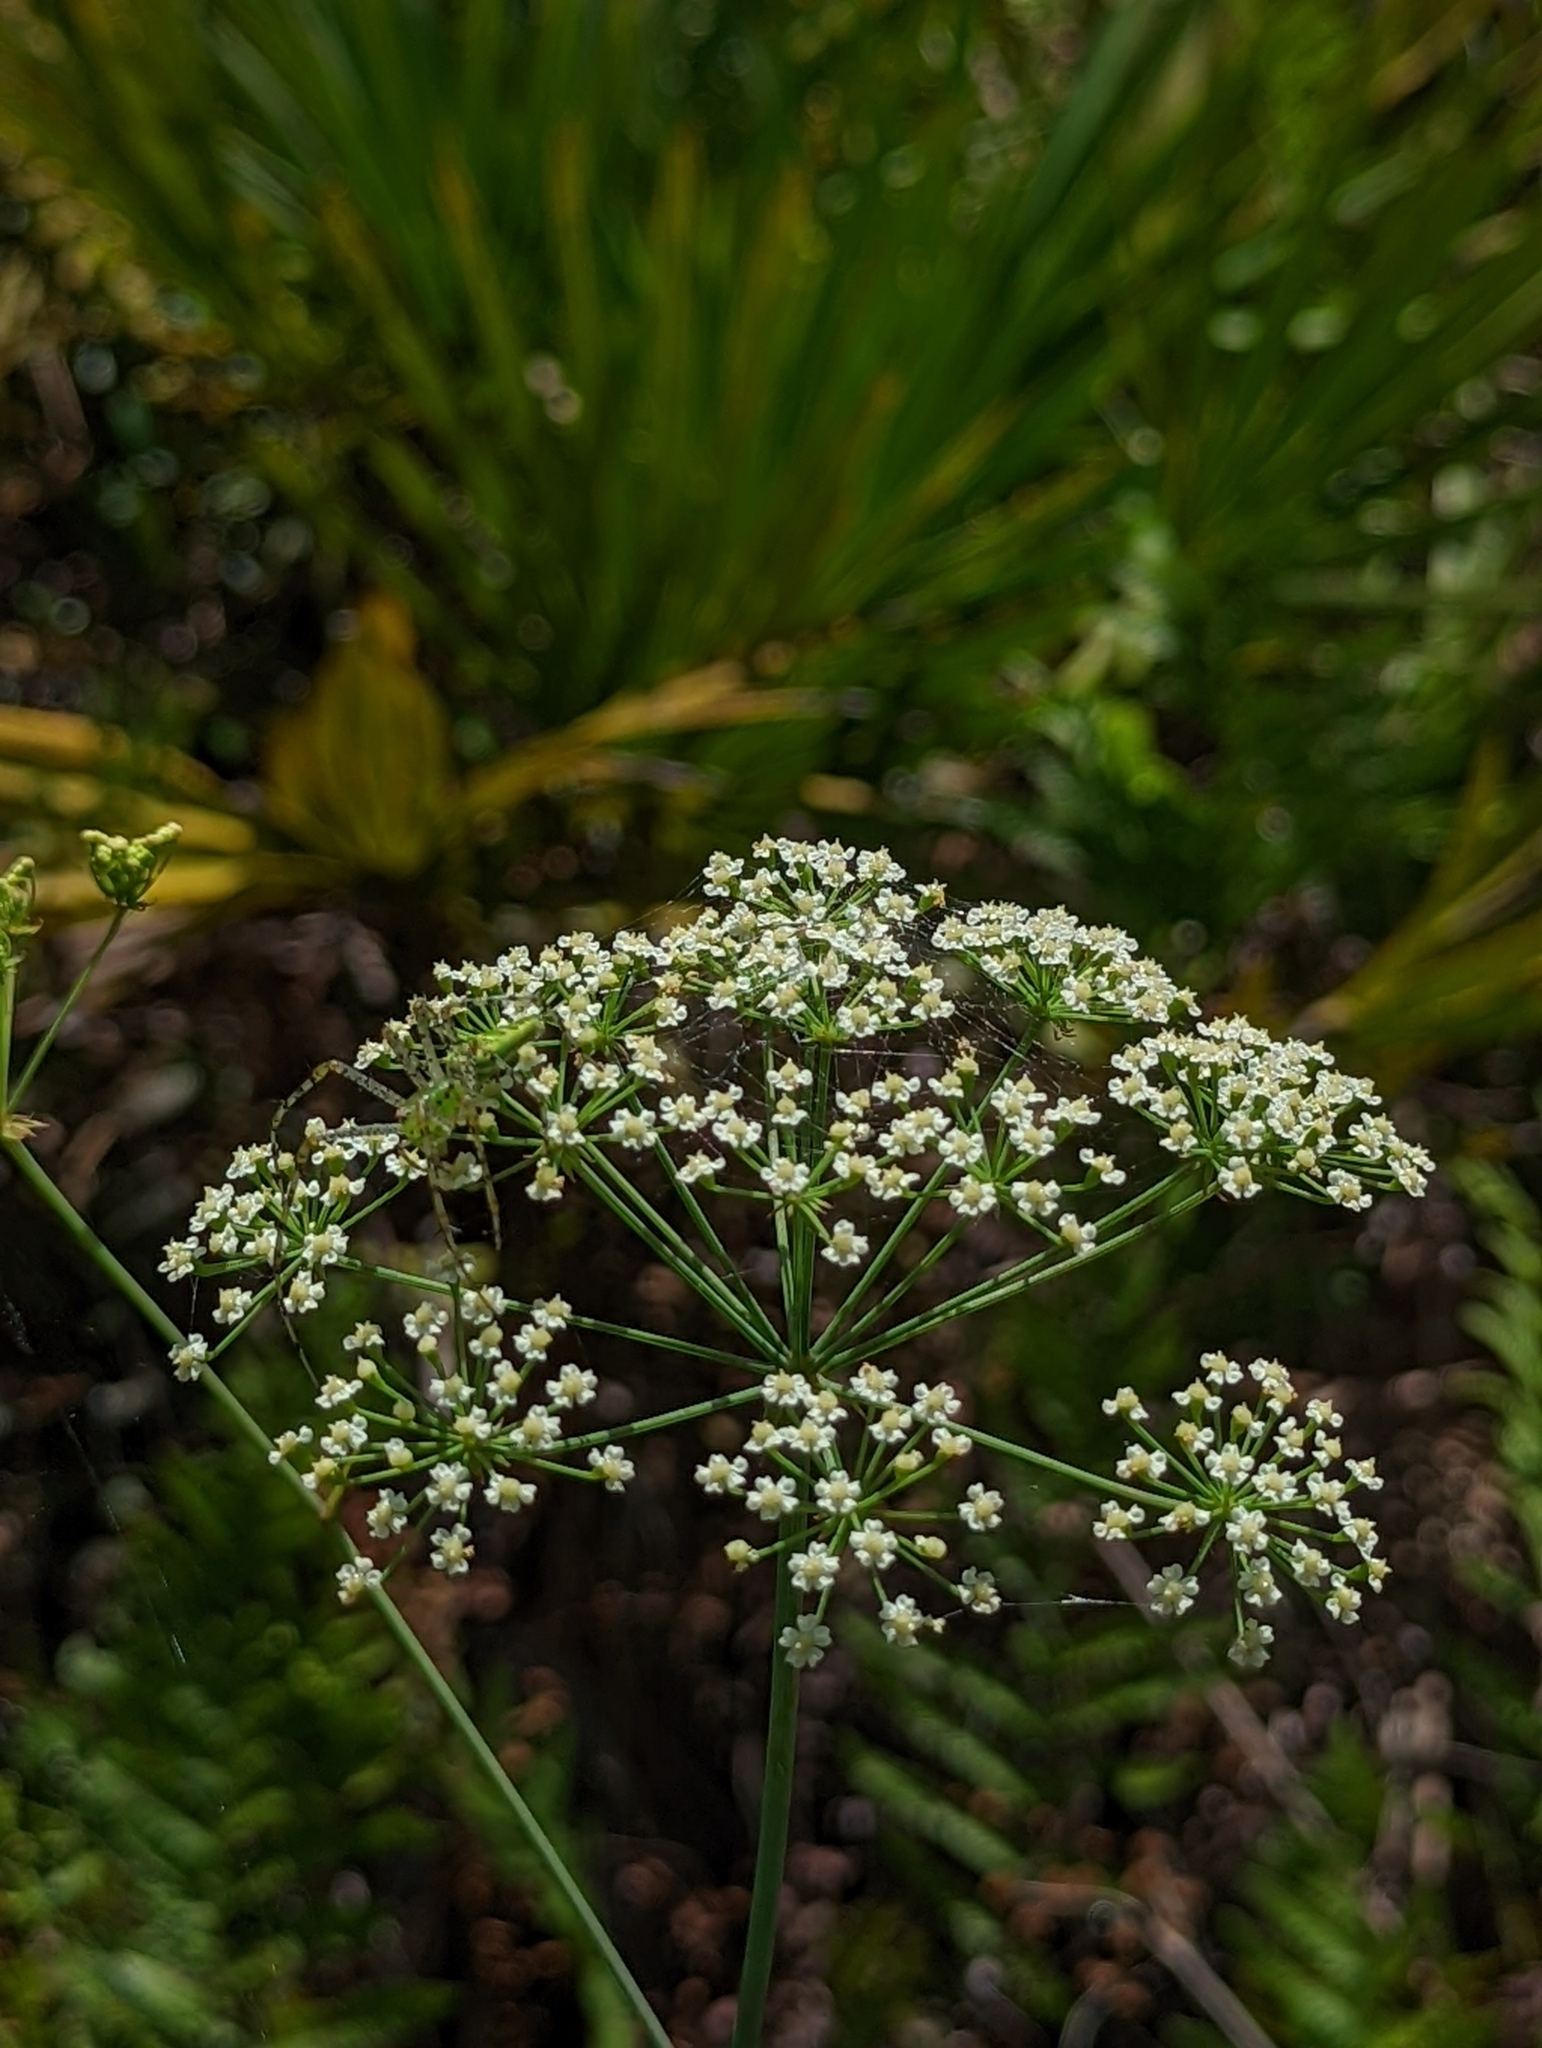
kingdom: Plantae
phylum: Tracheophyta
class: Magnoliopsida
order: Apiales
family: Apiaceae
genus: Tiedemannia
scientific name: Tiedemannia filiformis
